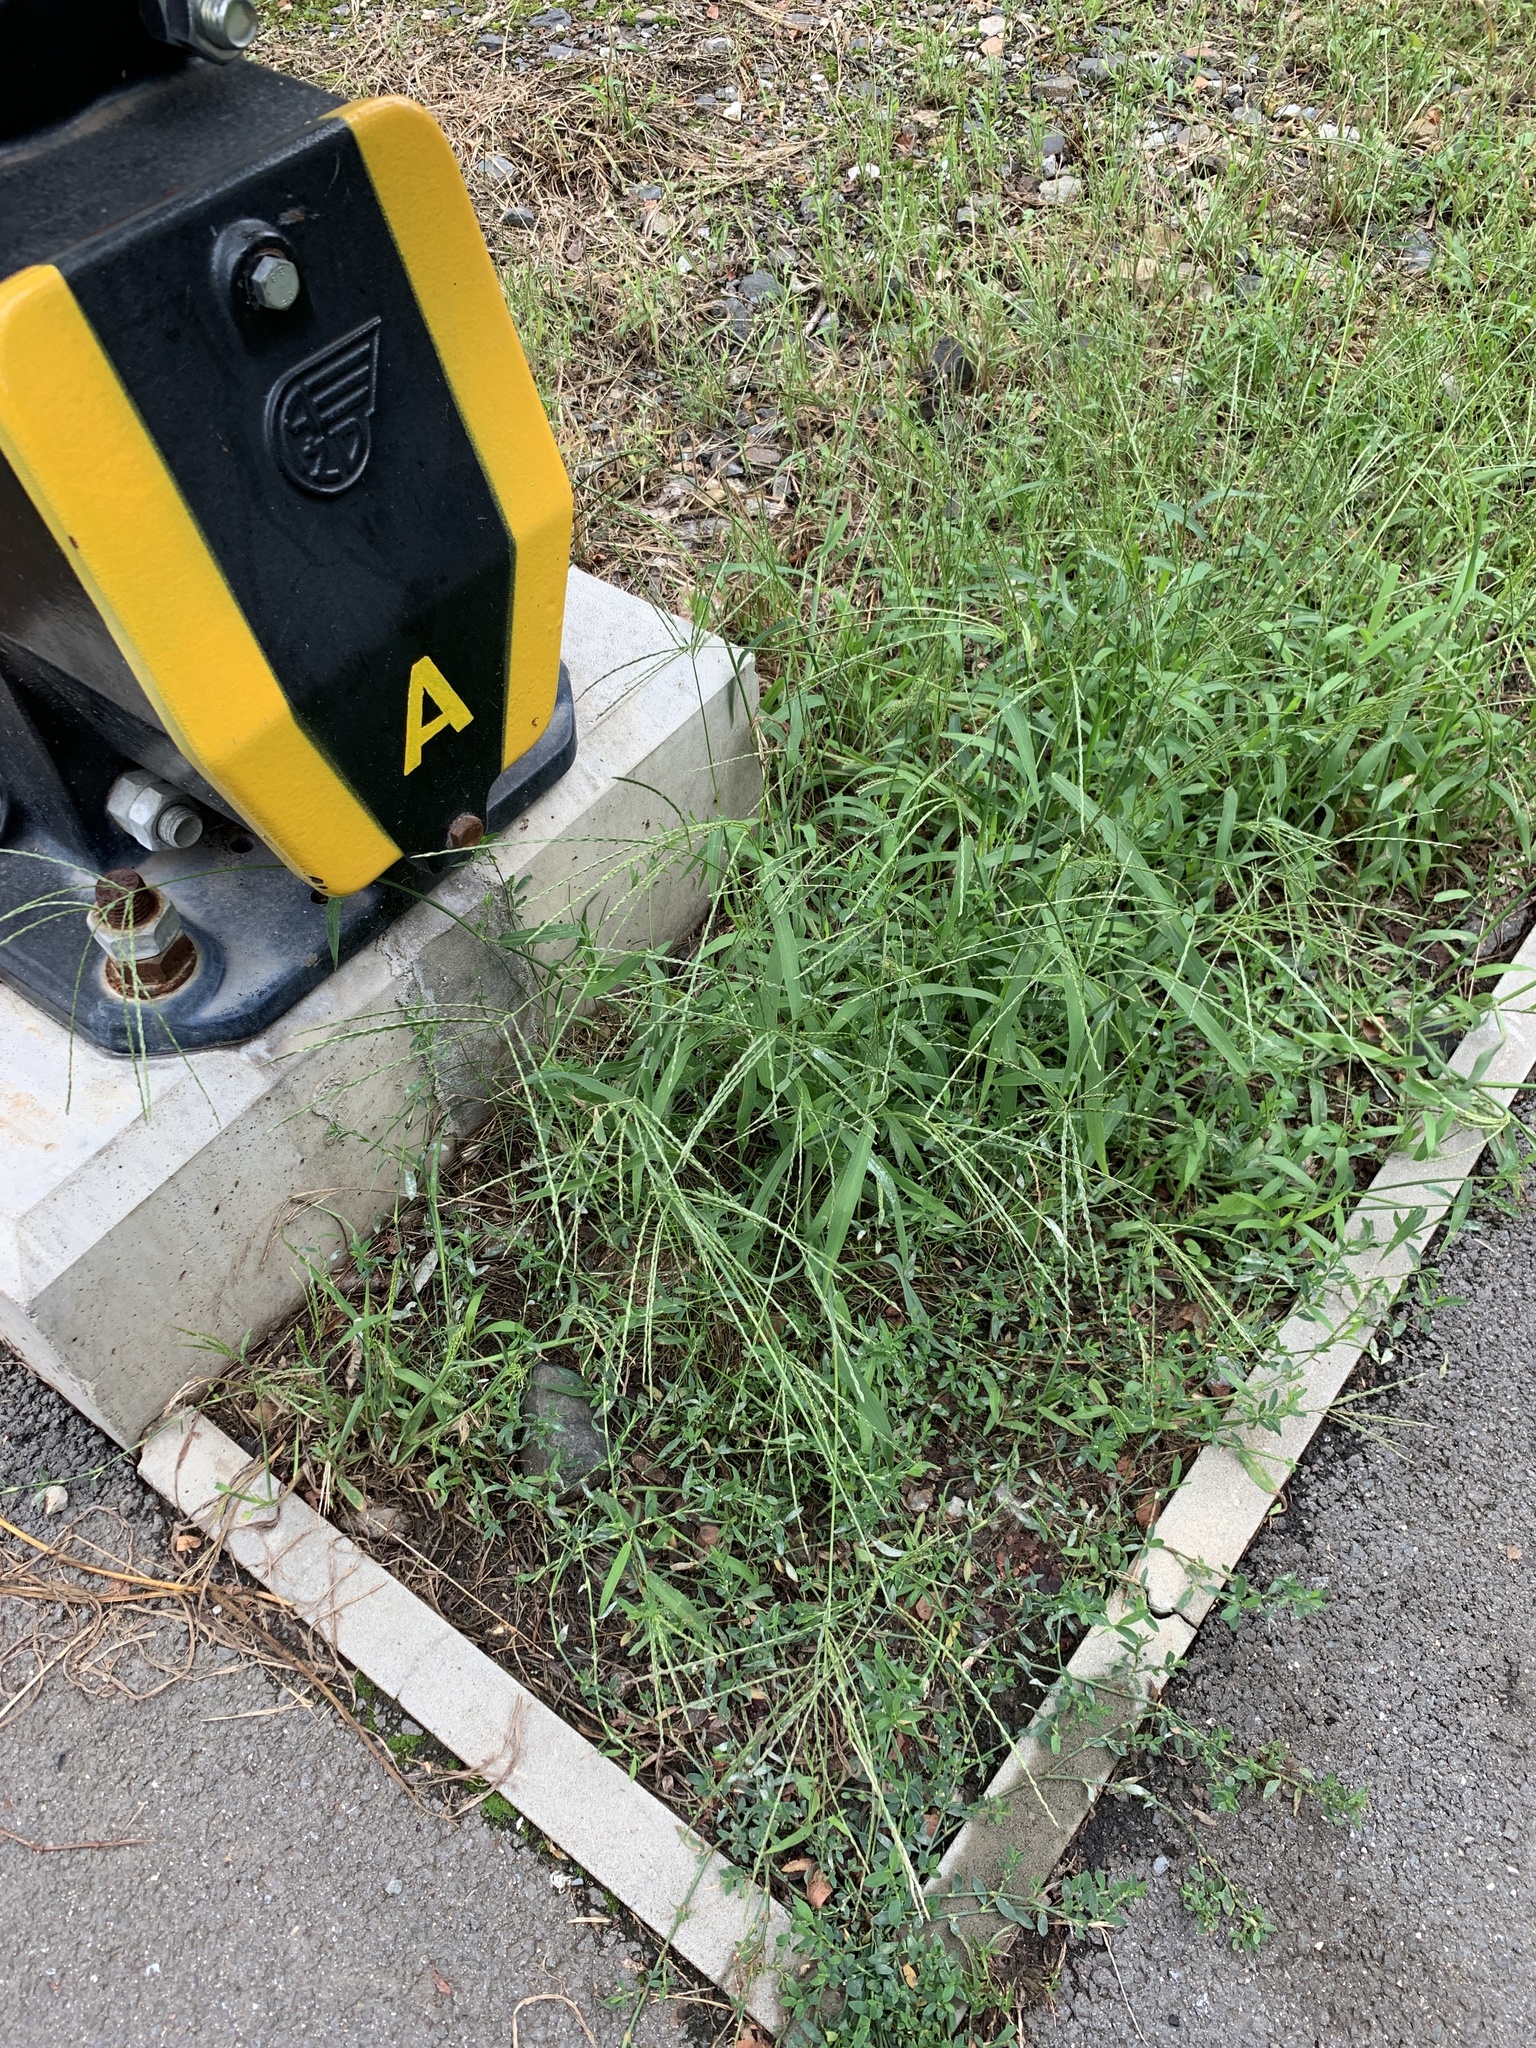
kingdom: Plantae
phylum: Tracheophyta
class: Liliopsida
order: Poales
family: Poaceae
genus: Digitaria
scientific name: Digitaria sanguinalis
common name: Hairy crabgrass
